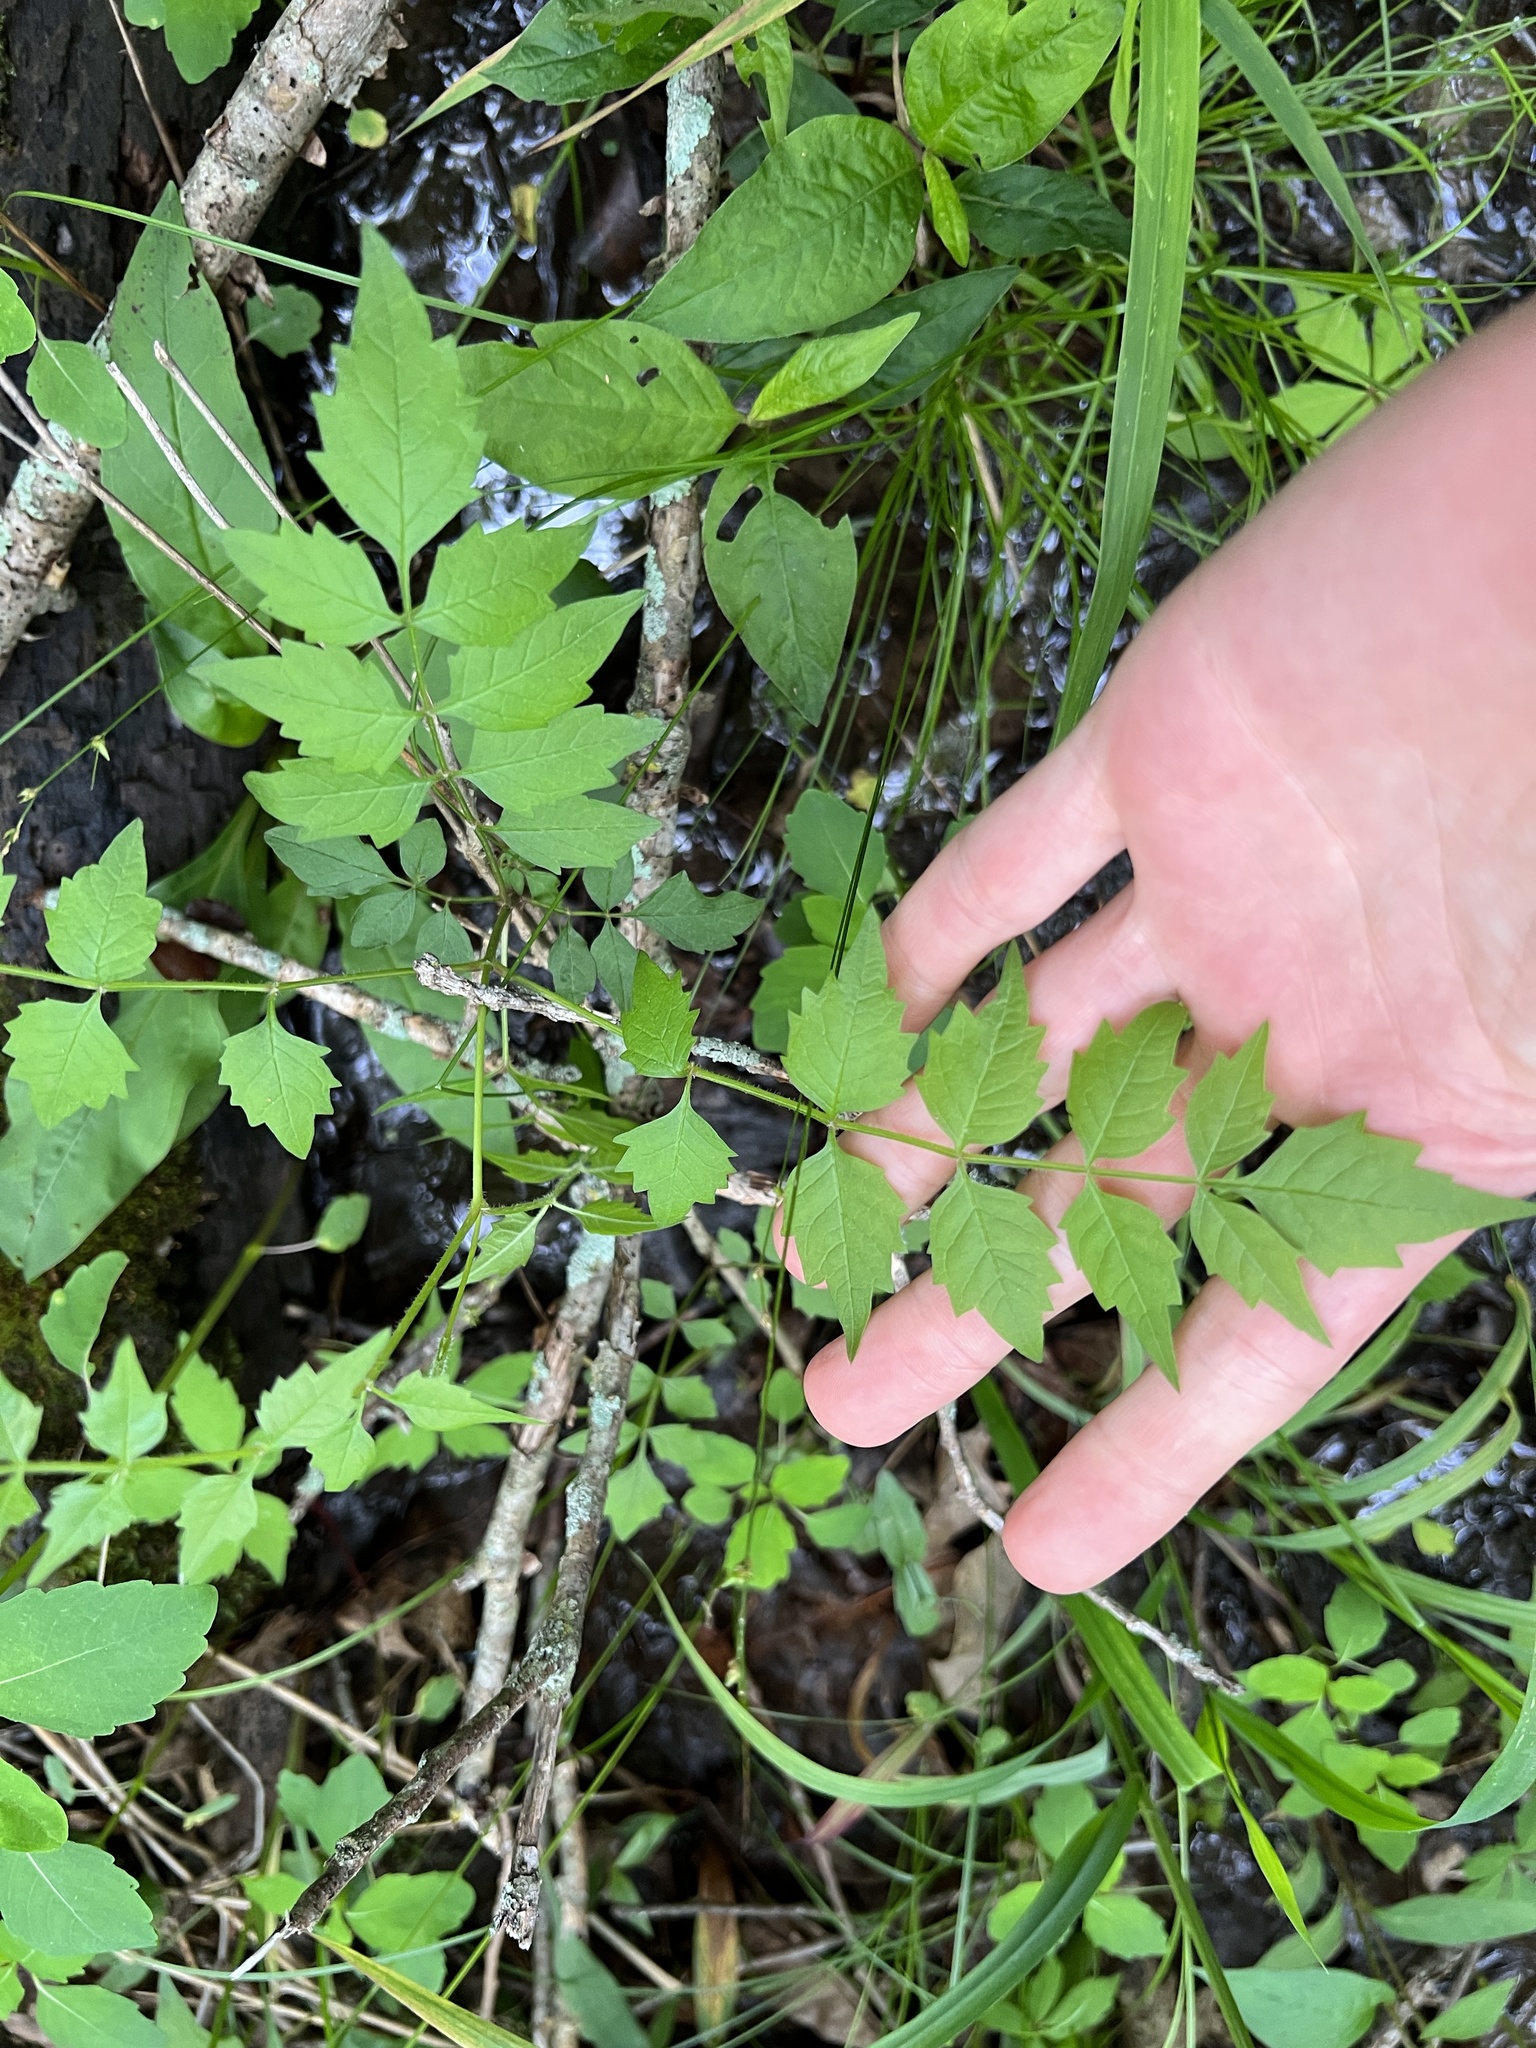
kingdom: Plantae
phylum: Tracheophyta
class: Magnoliopsida
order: Lamiales
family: Bignoniaceae
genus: Campsis
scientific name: Campsis radicans
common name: Trumpet-creeper
